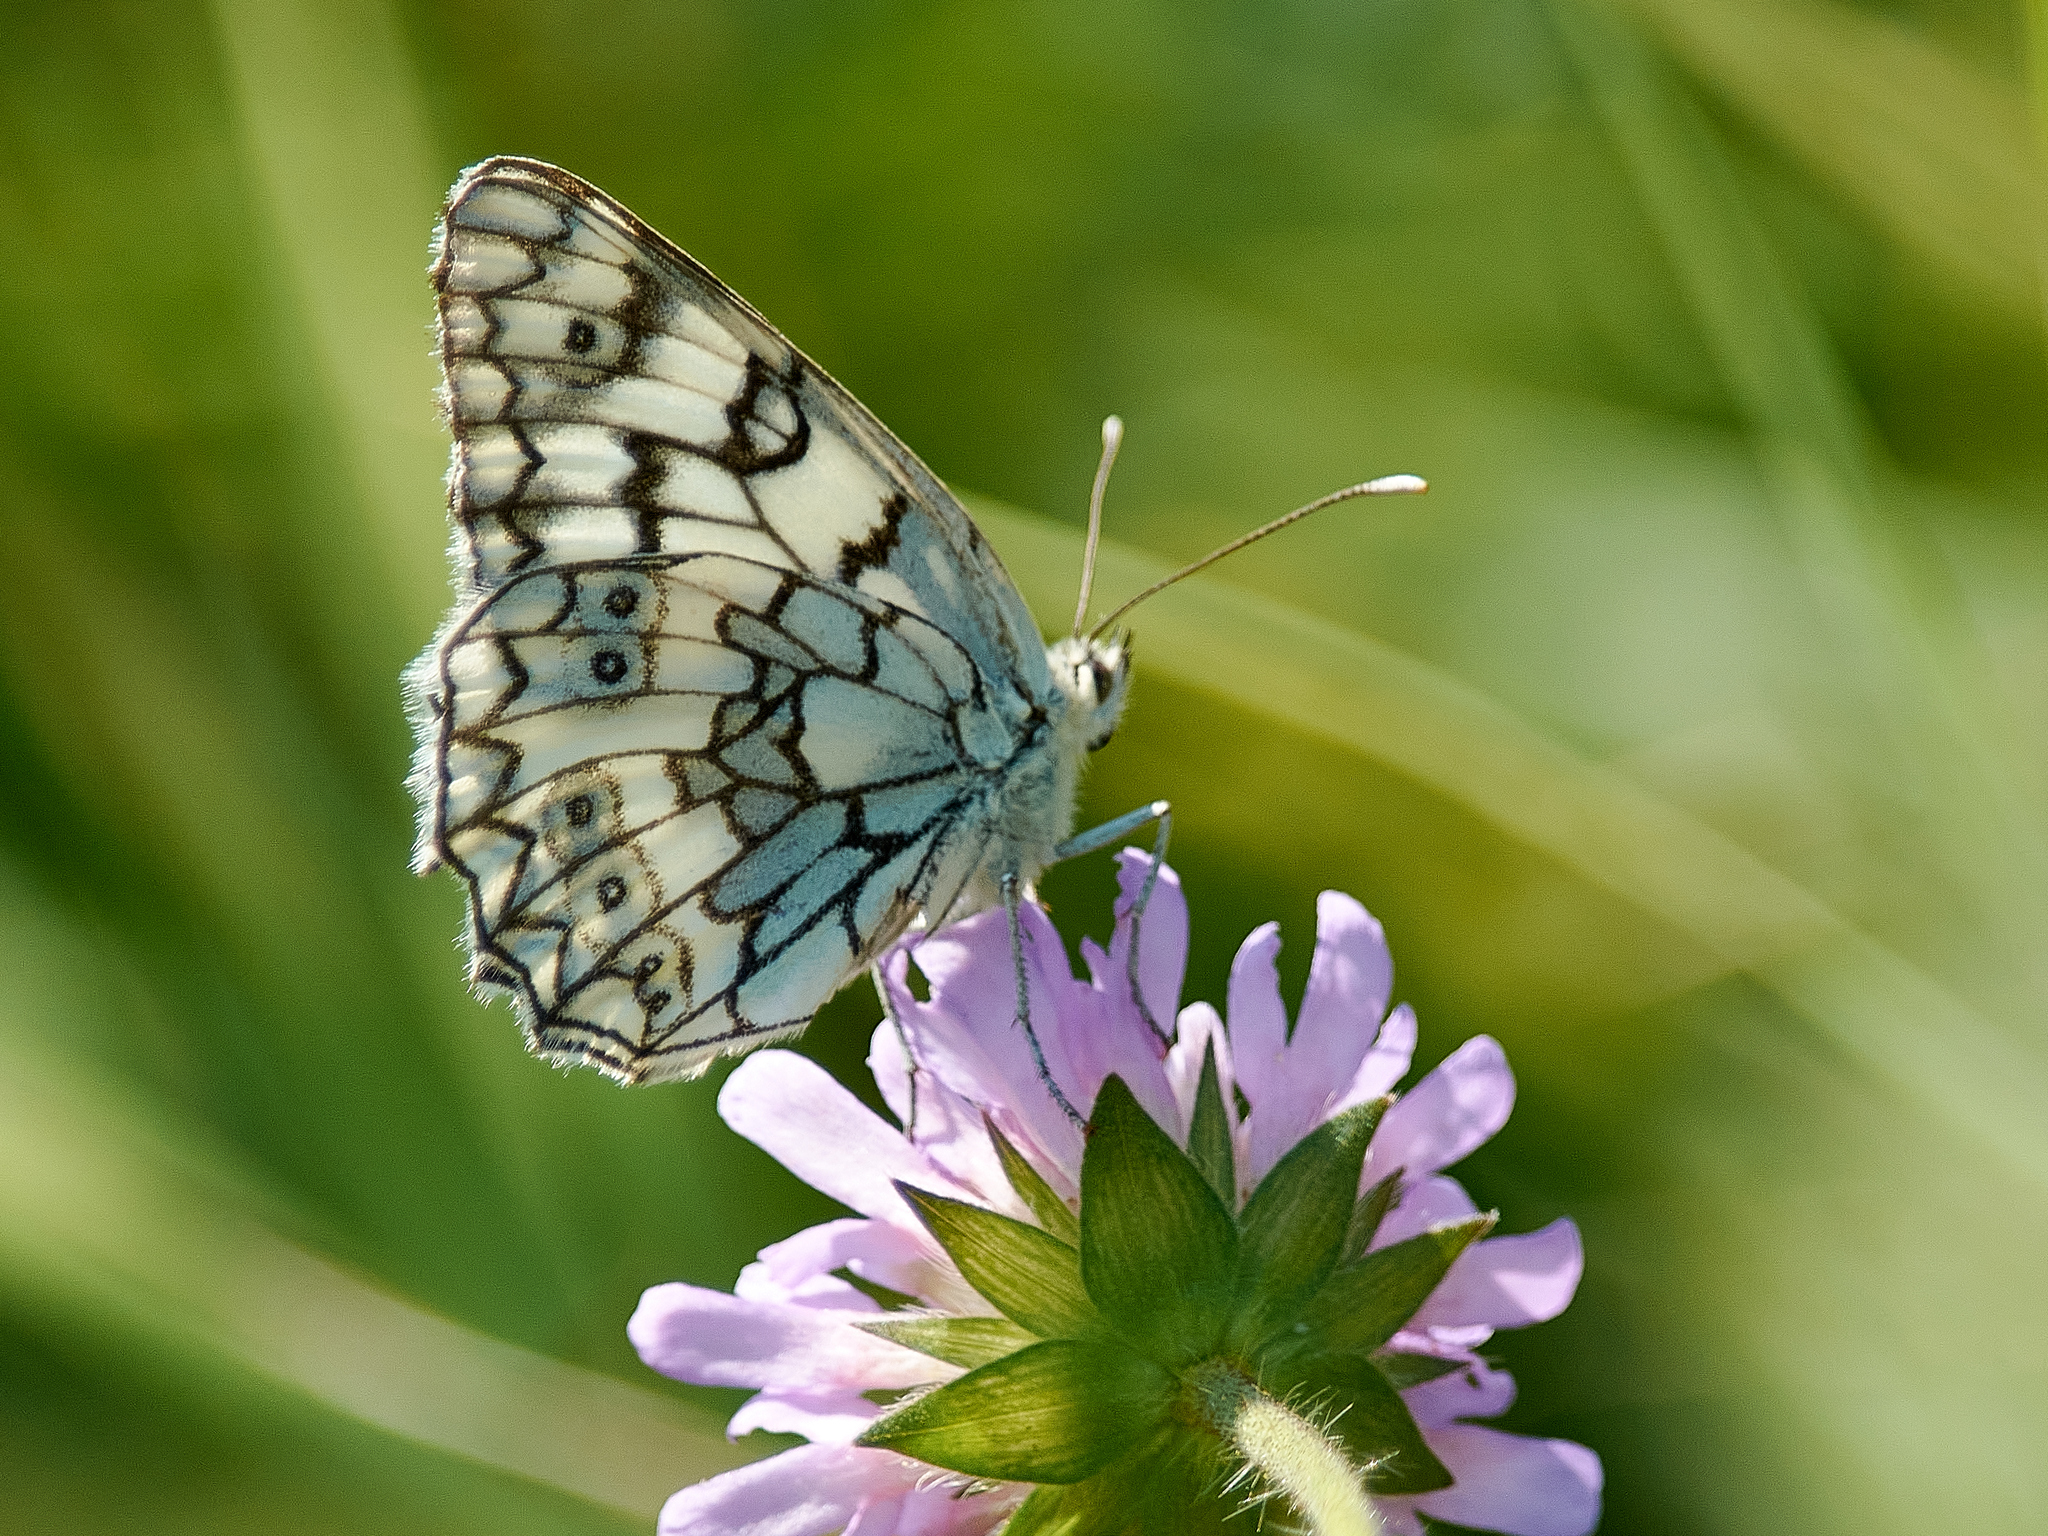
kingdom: Animalia
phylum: Arthropoda
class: Insecta
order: Lepidoptera
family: Nymphalidae
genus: Melanargia
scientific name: Melanargia japygia
